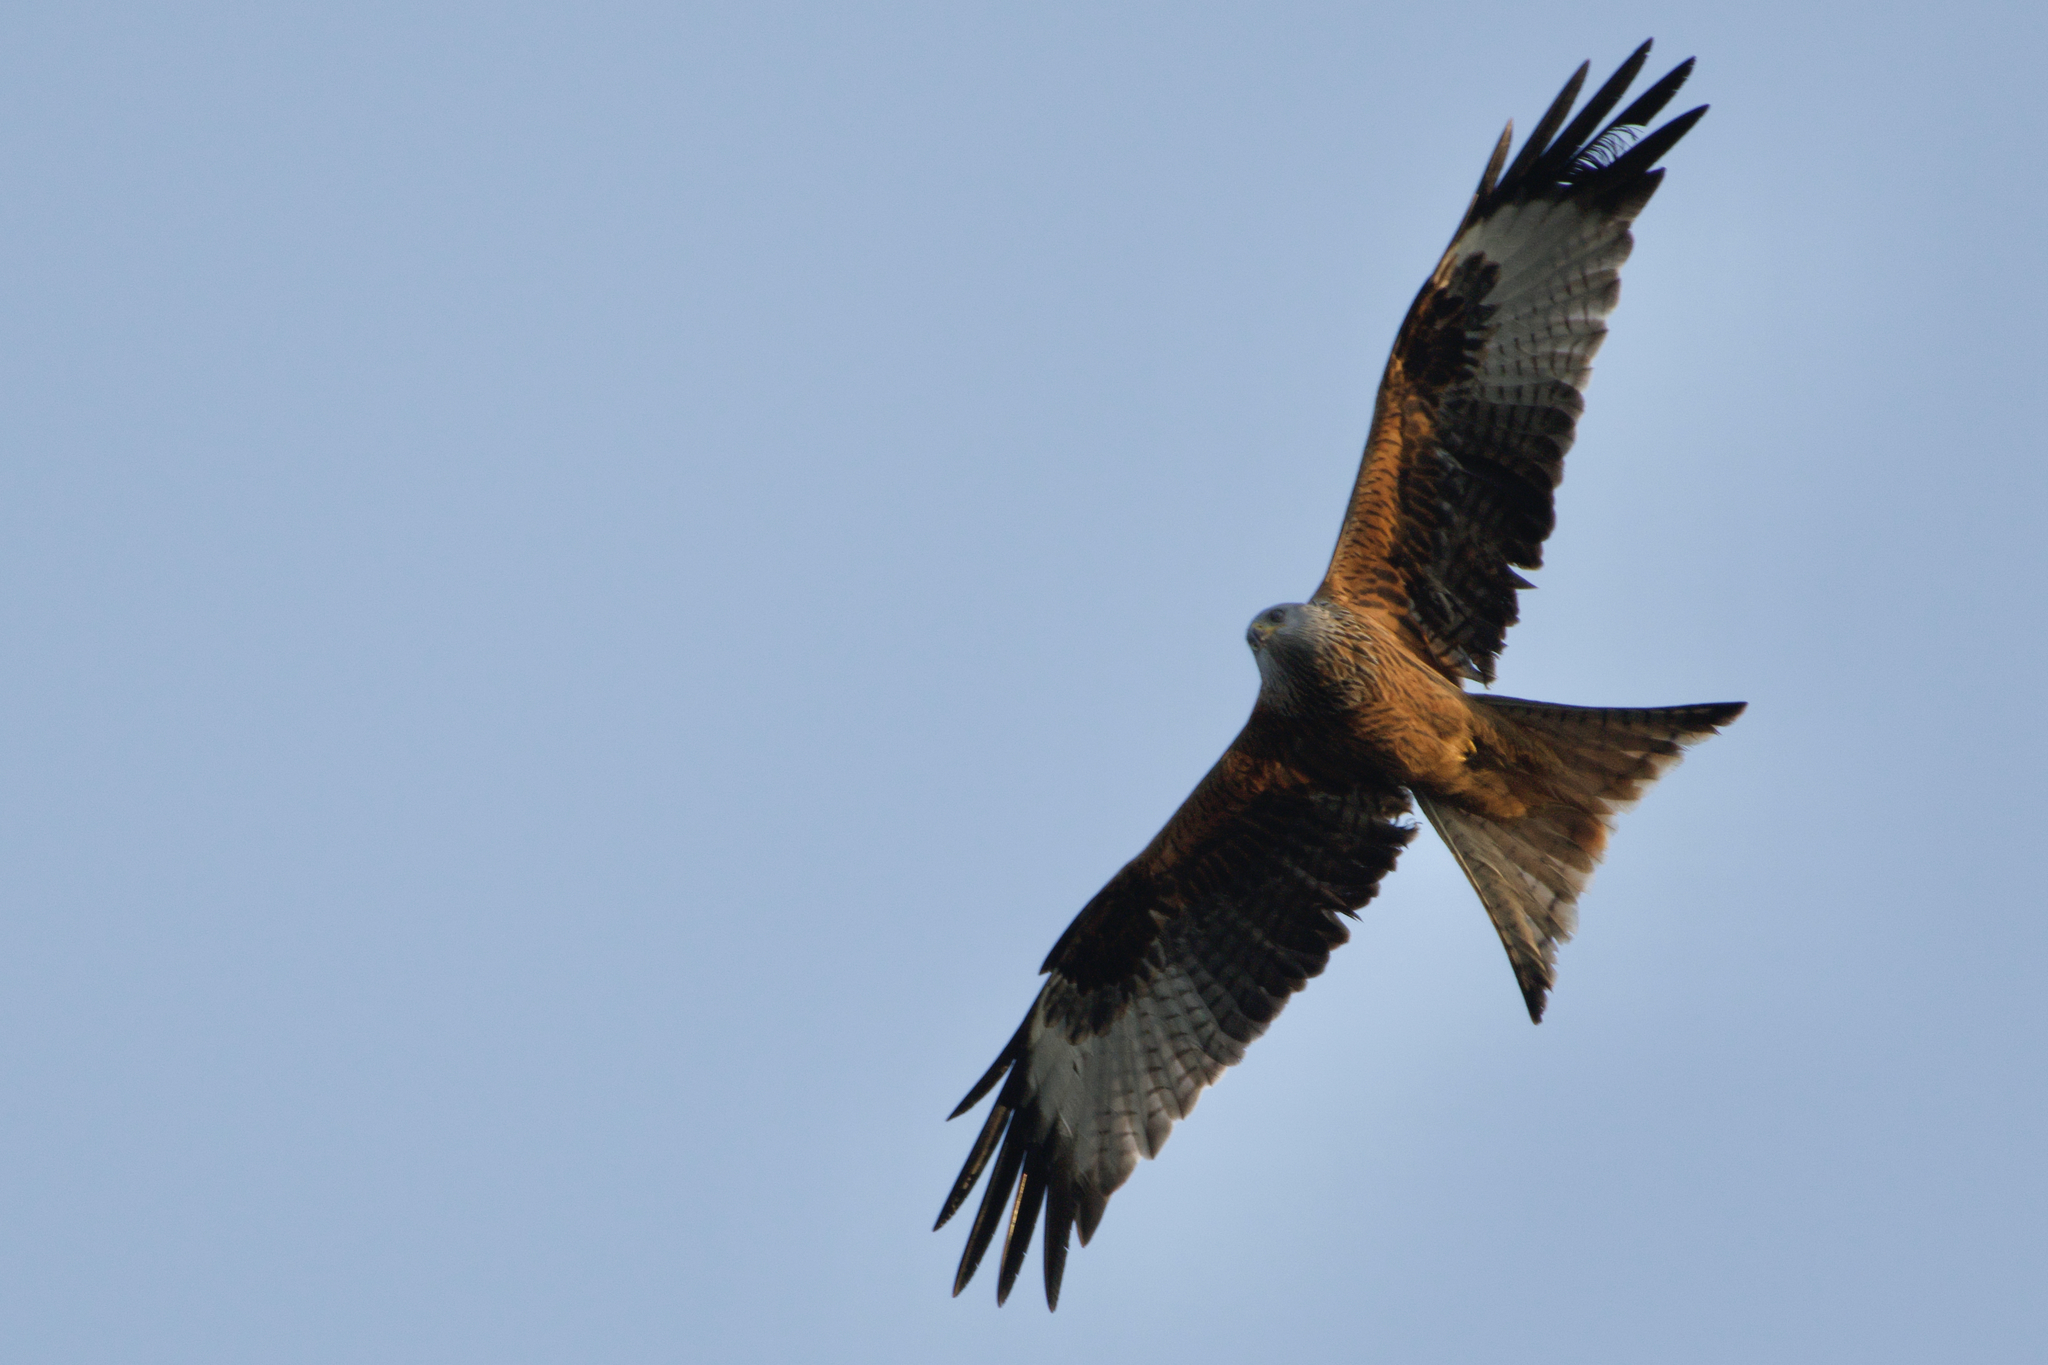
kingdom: Animalia
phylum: Chordata
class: Aves
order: Accipitriformes
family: Accipitridae
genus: Milvus
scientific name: Milvus milvus
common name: Red kite
